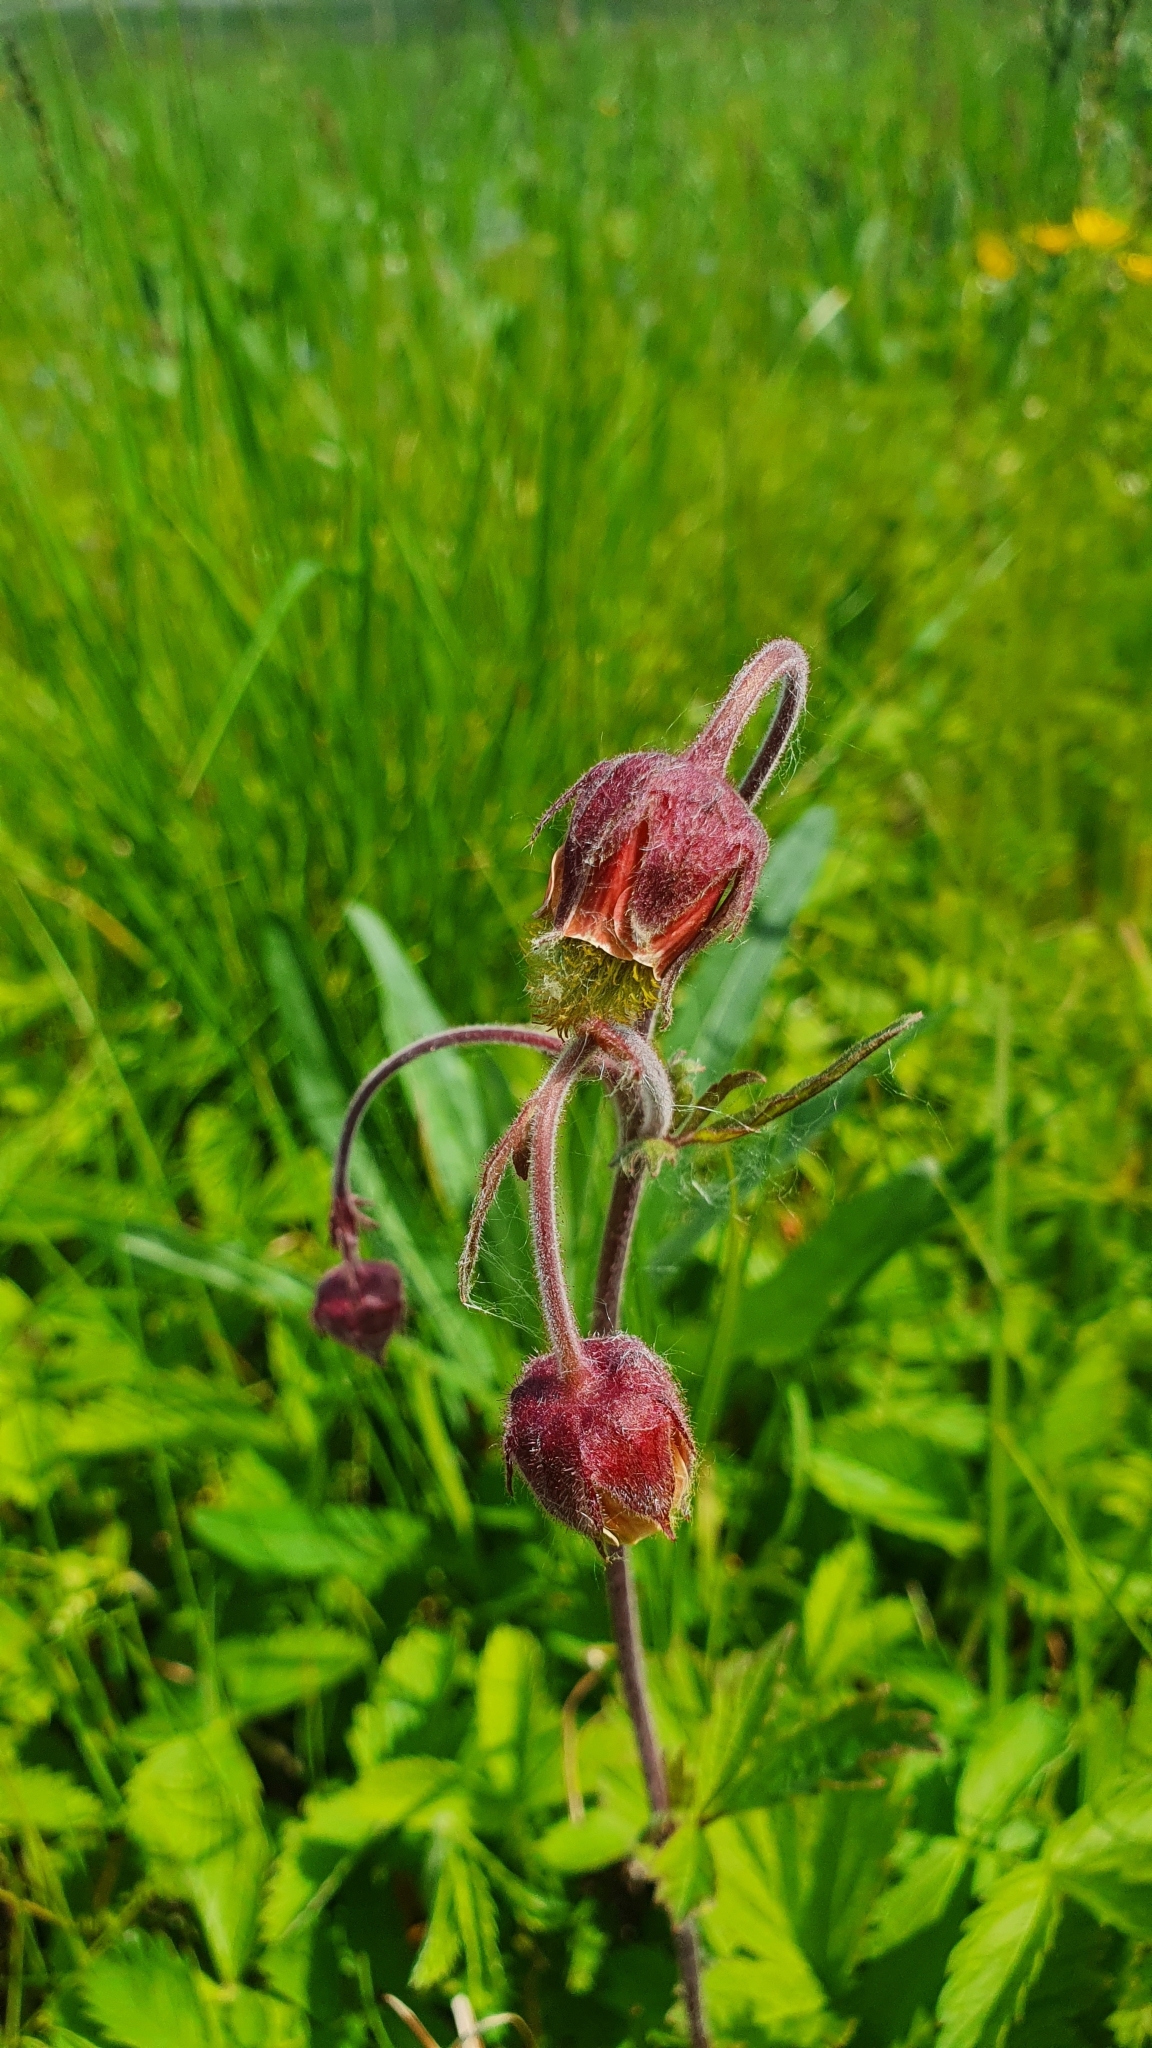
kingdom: Plantae
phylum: Tracheophyta
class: Magnoliopsida
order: Rosales
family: Rosaceae
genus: Geum
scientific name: Geum rivale
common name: Water avens
